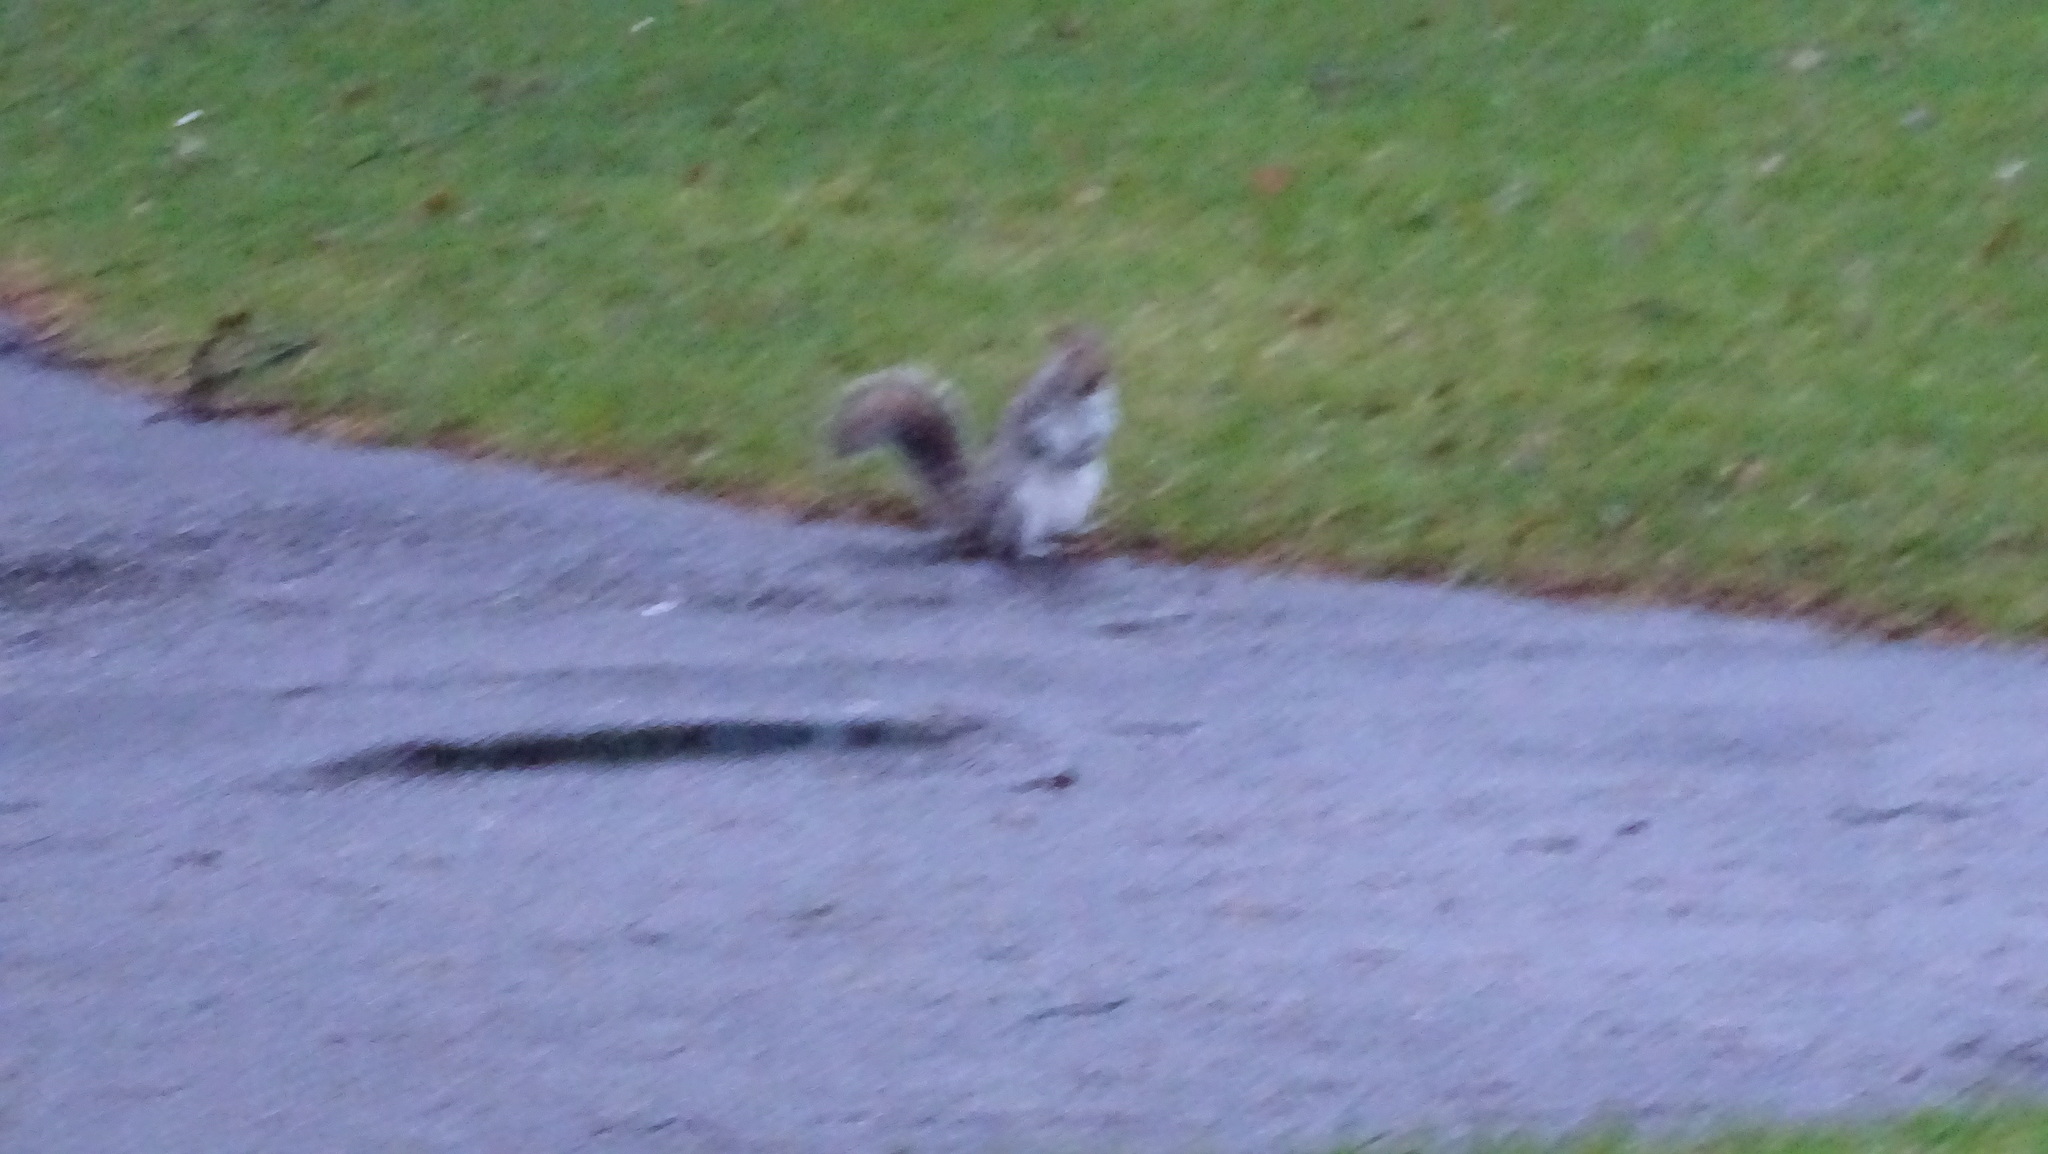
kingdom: Animalia
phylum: Chordata
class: Mammalia
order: Rodentia
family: Sciuridae
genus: Sciurus
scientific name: Sciurus carolinensis
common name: Eastern gray squirrel
